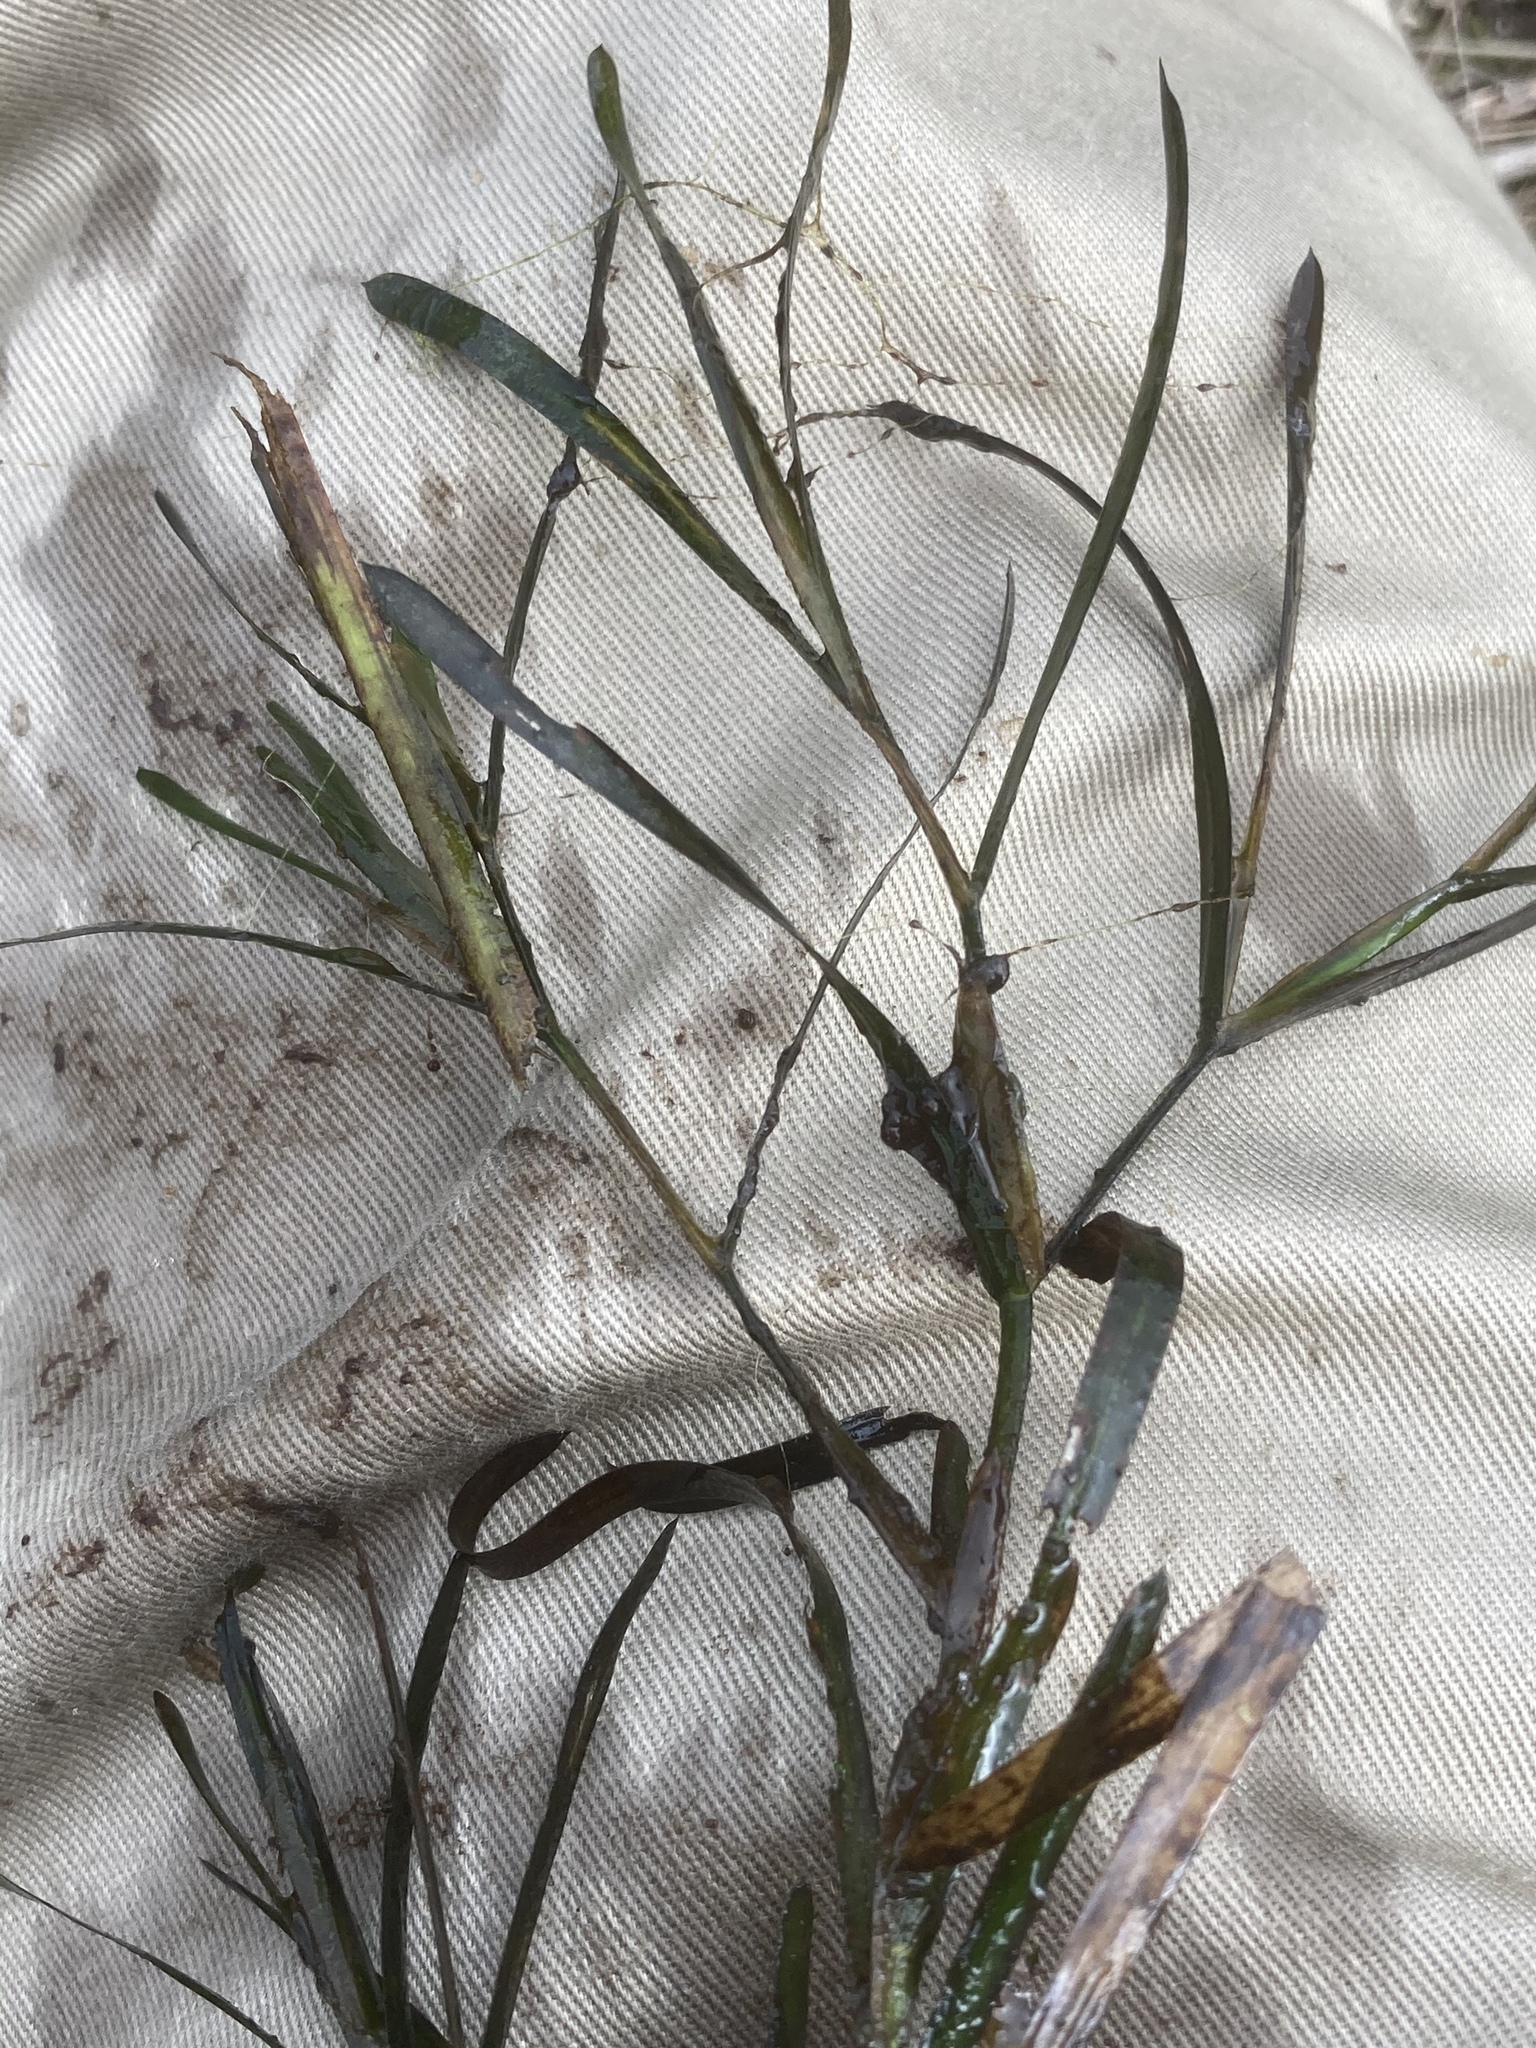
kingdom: Plantae
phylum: Tracheophyta
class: Liliopsida
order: Alismatales
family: Potamogetonaceae
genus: Potamogeton
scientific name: Potamogeton obtusifolius
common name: Blunt-leaved pondweed
